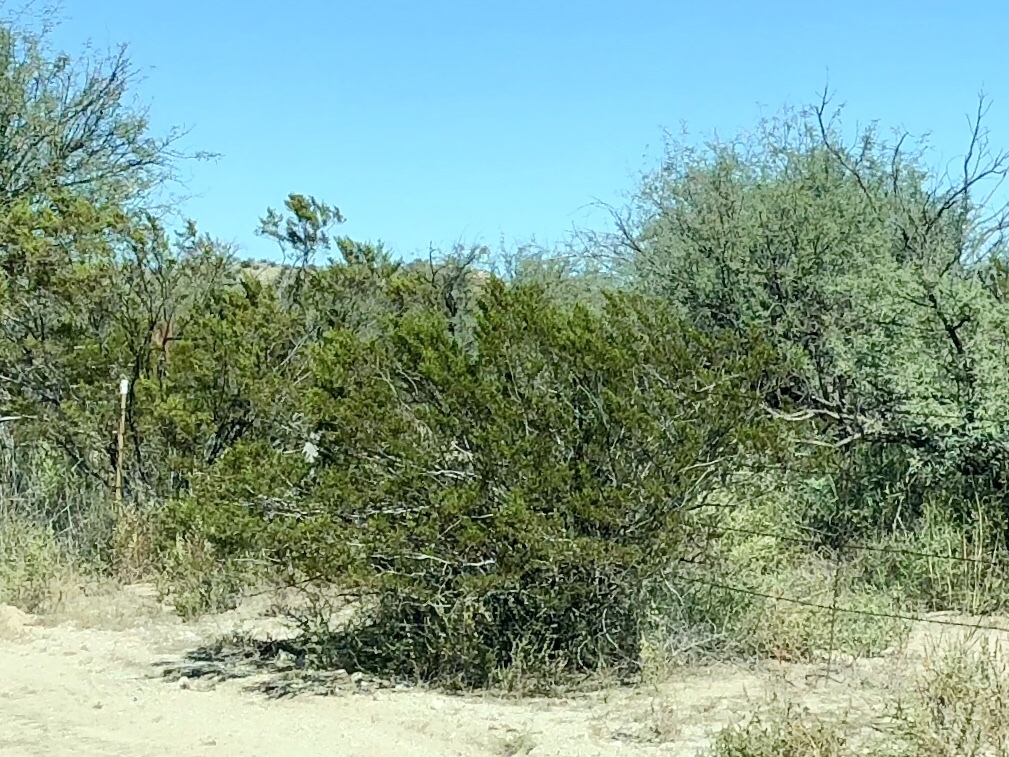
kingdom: Plantae
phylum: Tracheophyta
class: Magnoliopsida
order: Zygophyllales
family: Zygophyllaceae
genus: Larrea
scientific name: Larrea tridentata
